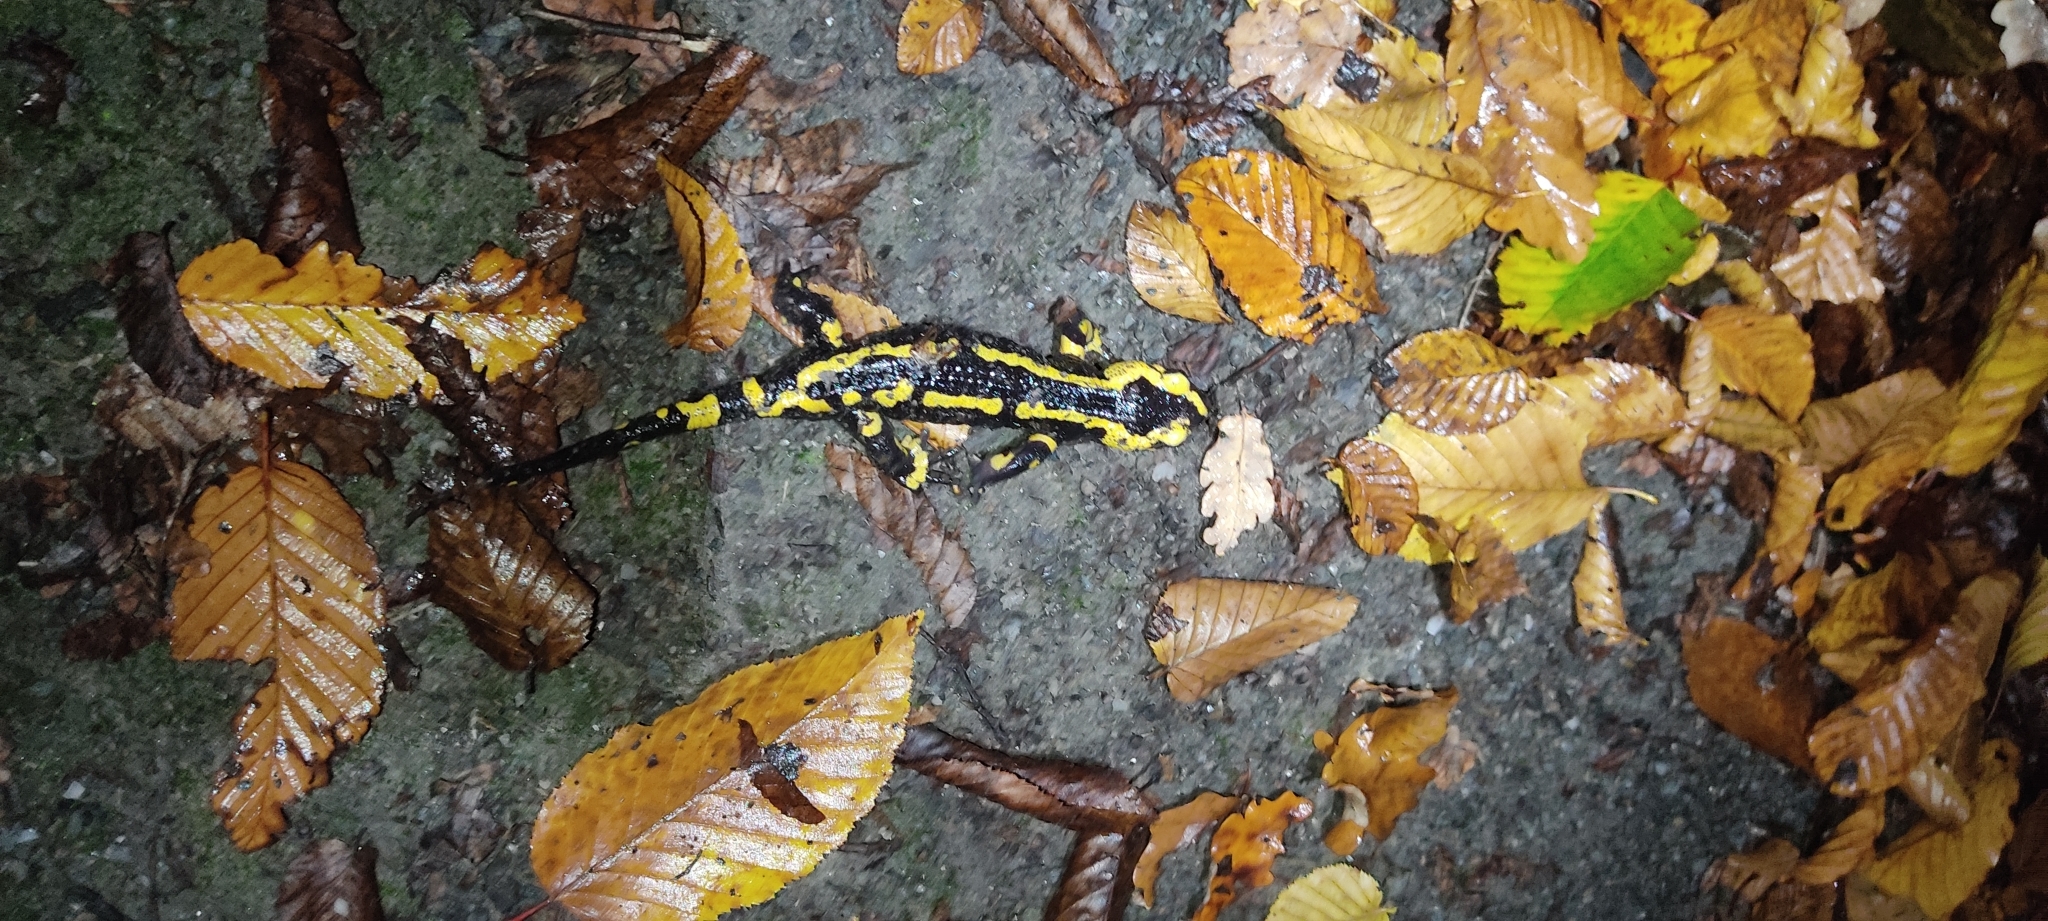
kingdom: Animalia
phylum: Chordata
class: Amphibia
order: Caudata
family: Salamandridae
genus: Salamandra
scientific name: Salamandra salamandra
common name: Fire salamander
